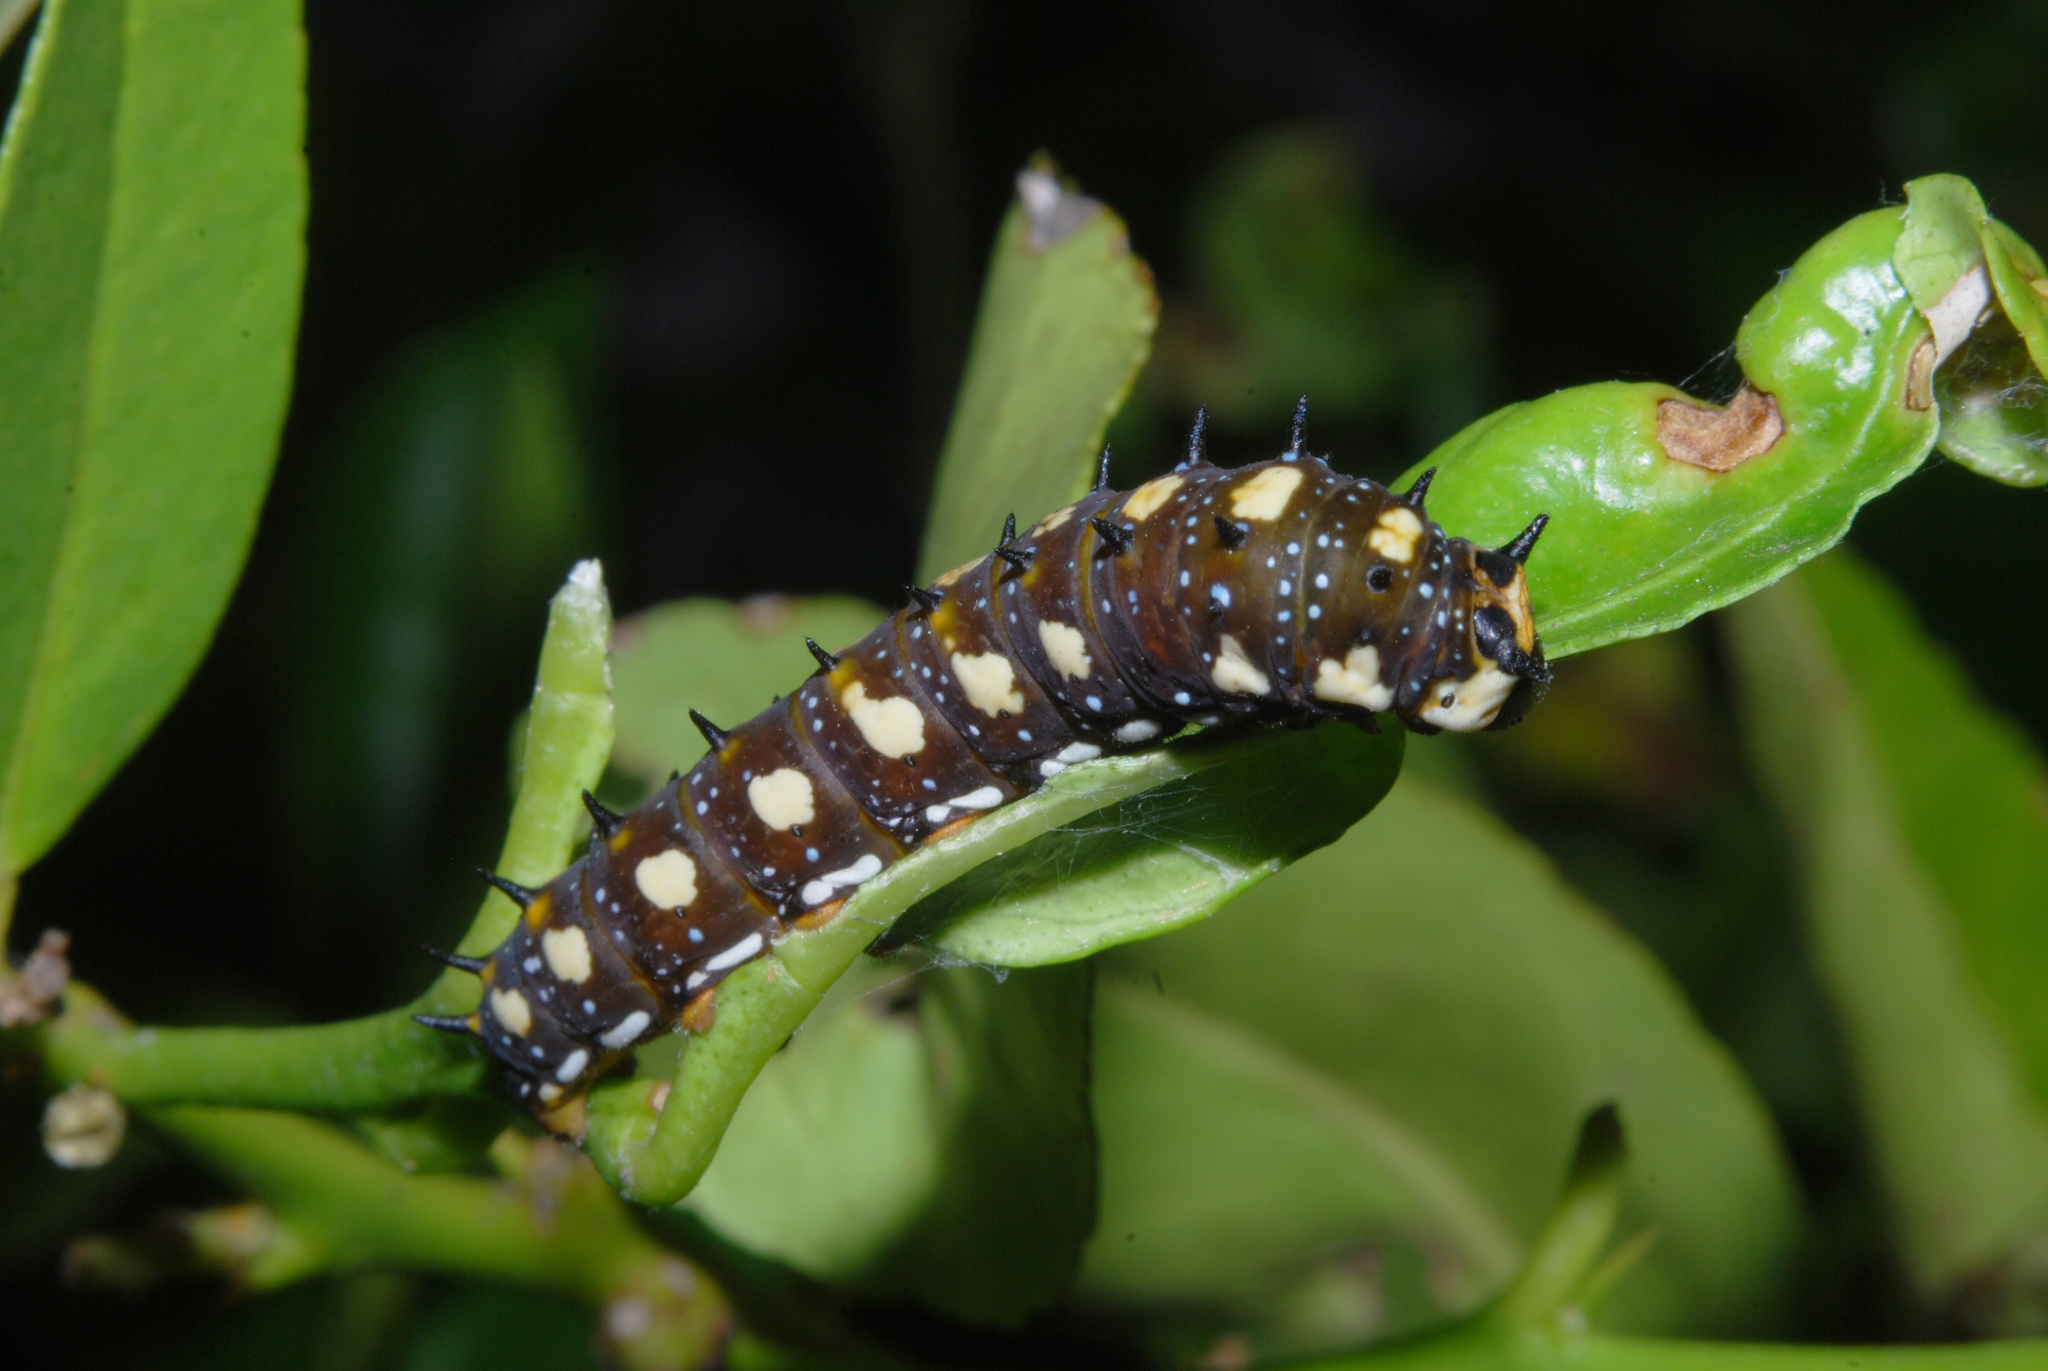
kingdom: Animalia
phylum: Arthropoda
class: Insecta
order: Lepidoptera
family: Papilionidae
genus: Papilio
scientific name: Papilio anactus
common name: Dingy swallowtail
